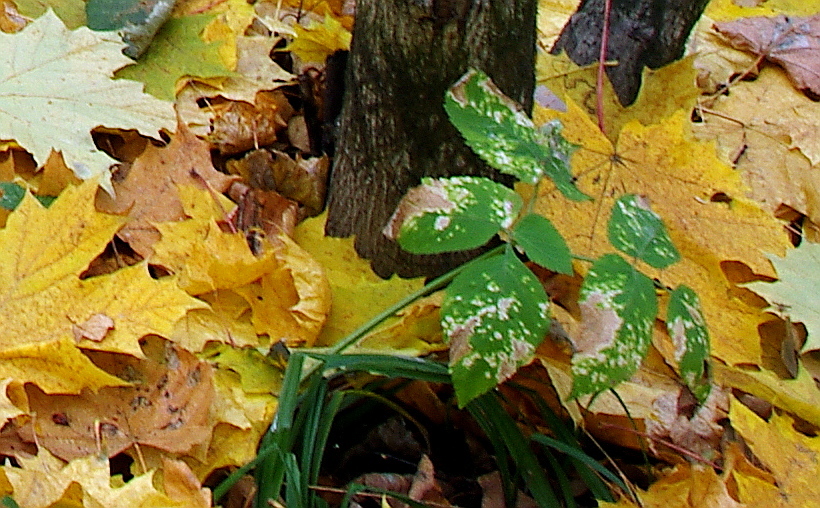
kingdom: Plantae
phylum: Tracheophyta
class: Magnoliopsida
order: Apiales
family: Apiaceae
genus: Aegopodium
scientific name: Aegopodium podagraria
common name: Ground-elder
